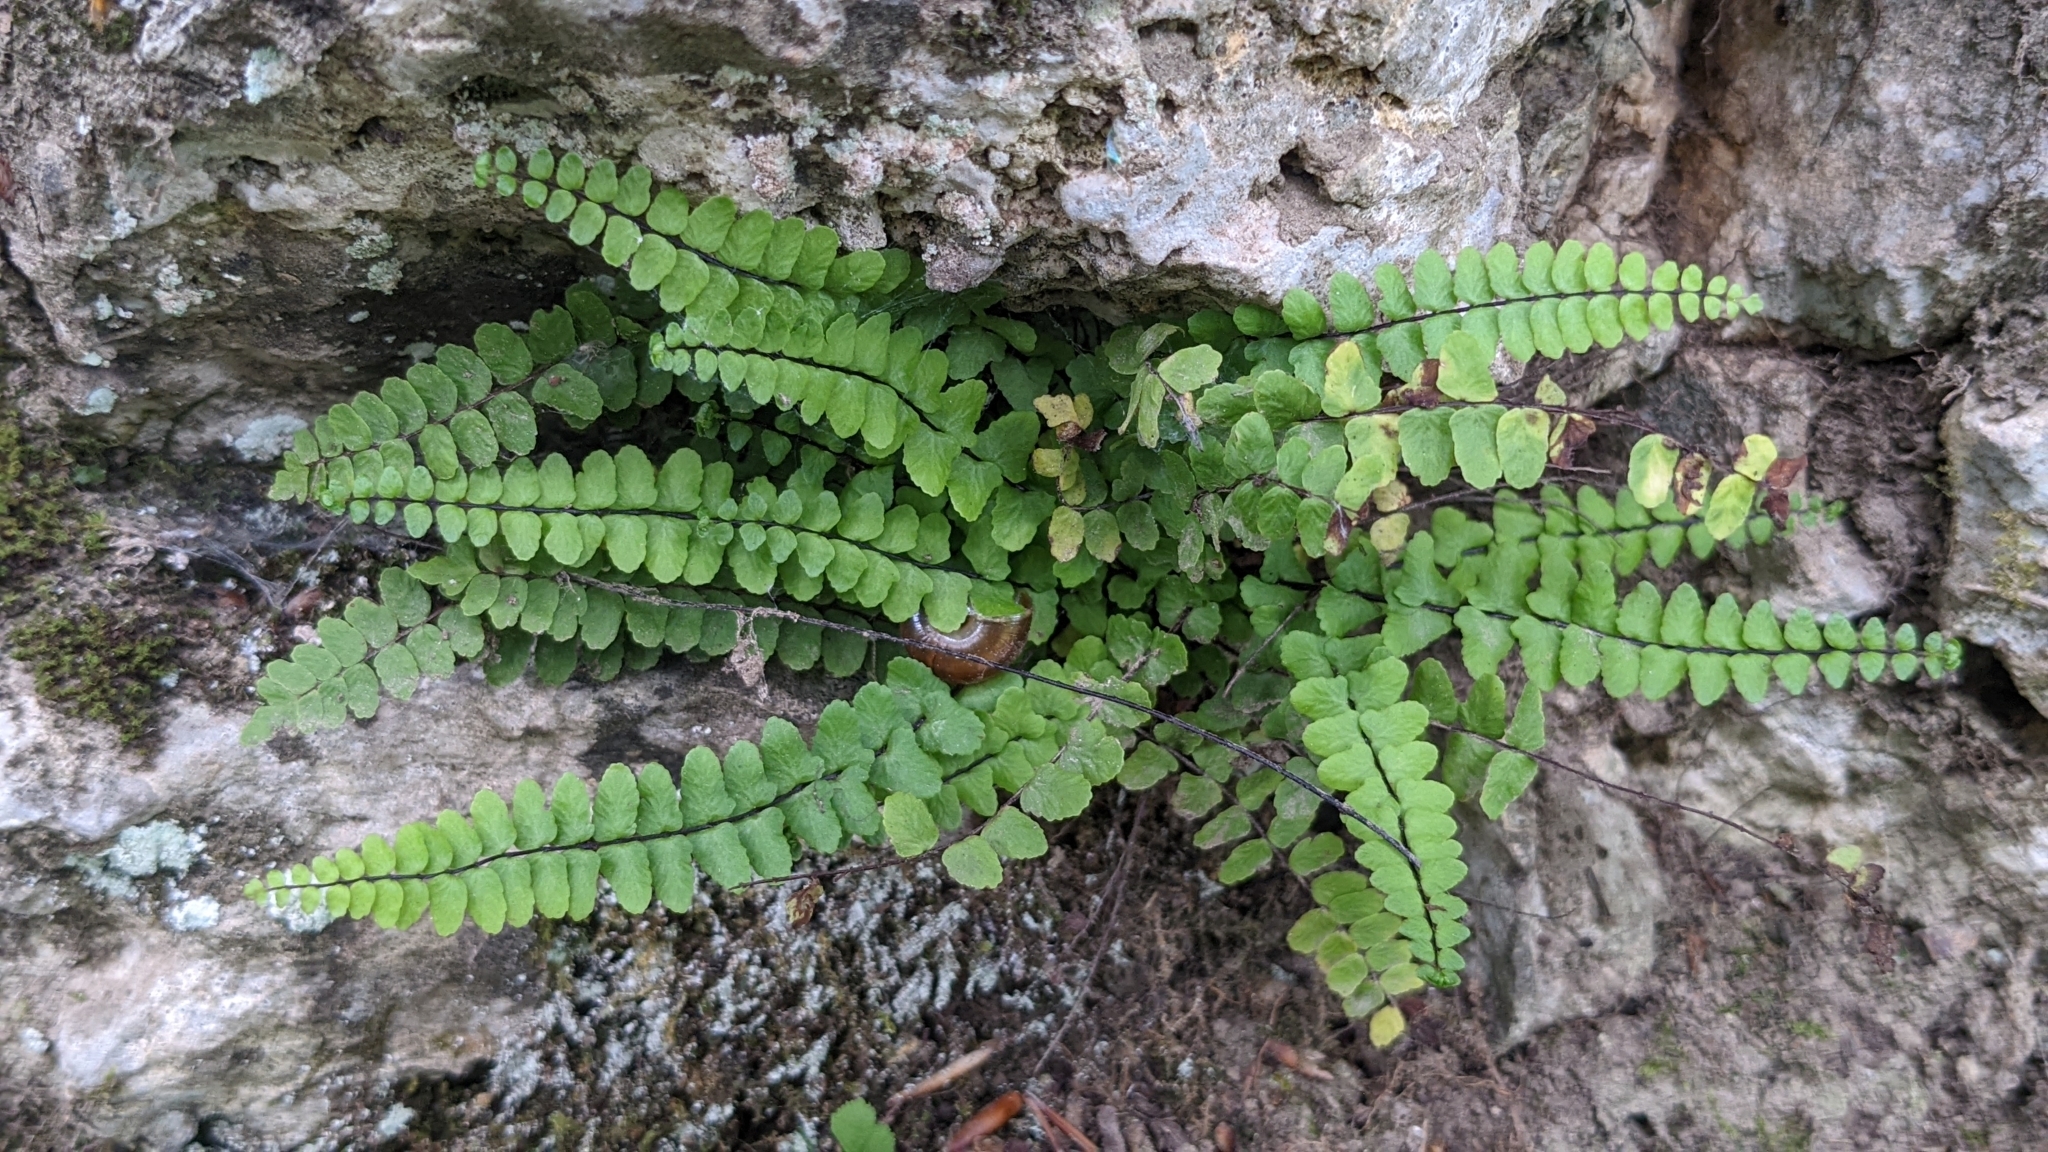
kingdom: Plantae
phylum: Tracheophyta
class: Polypodiopsida
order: Polypodiales
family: Aspleniaceae
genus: Asplenium
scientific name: Asplenium trichomanes
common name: Maidenhair spleenwort
